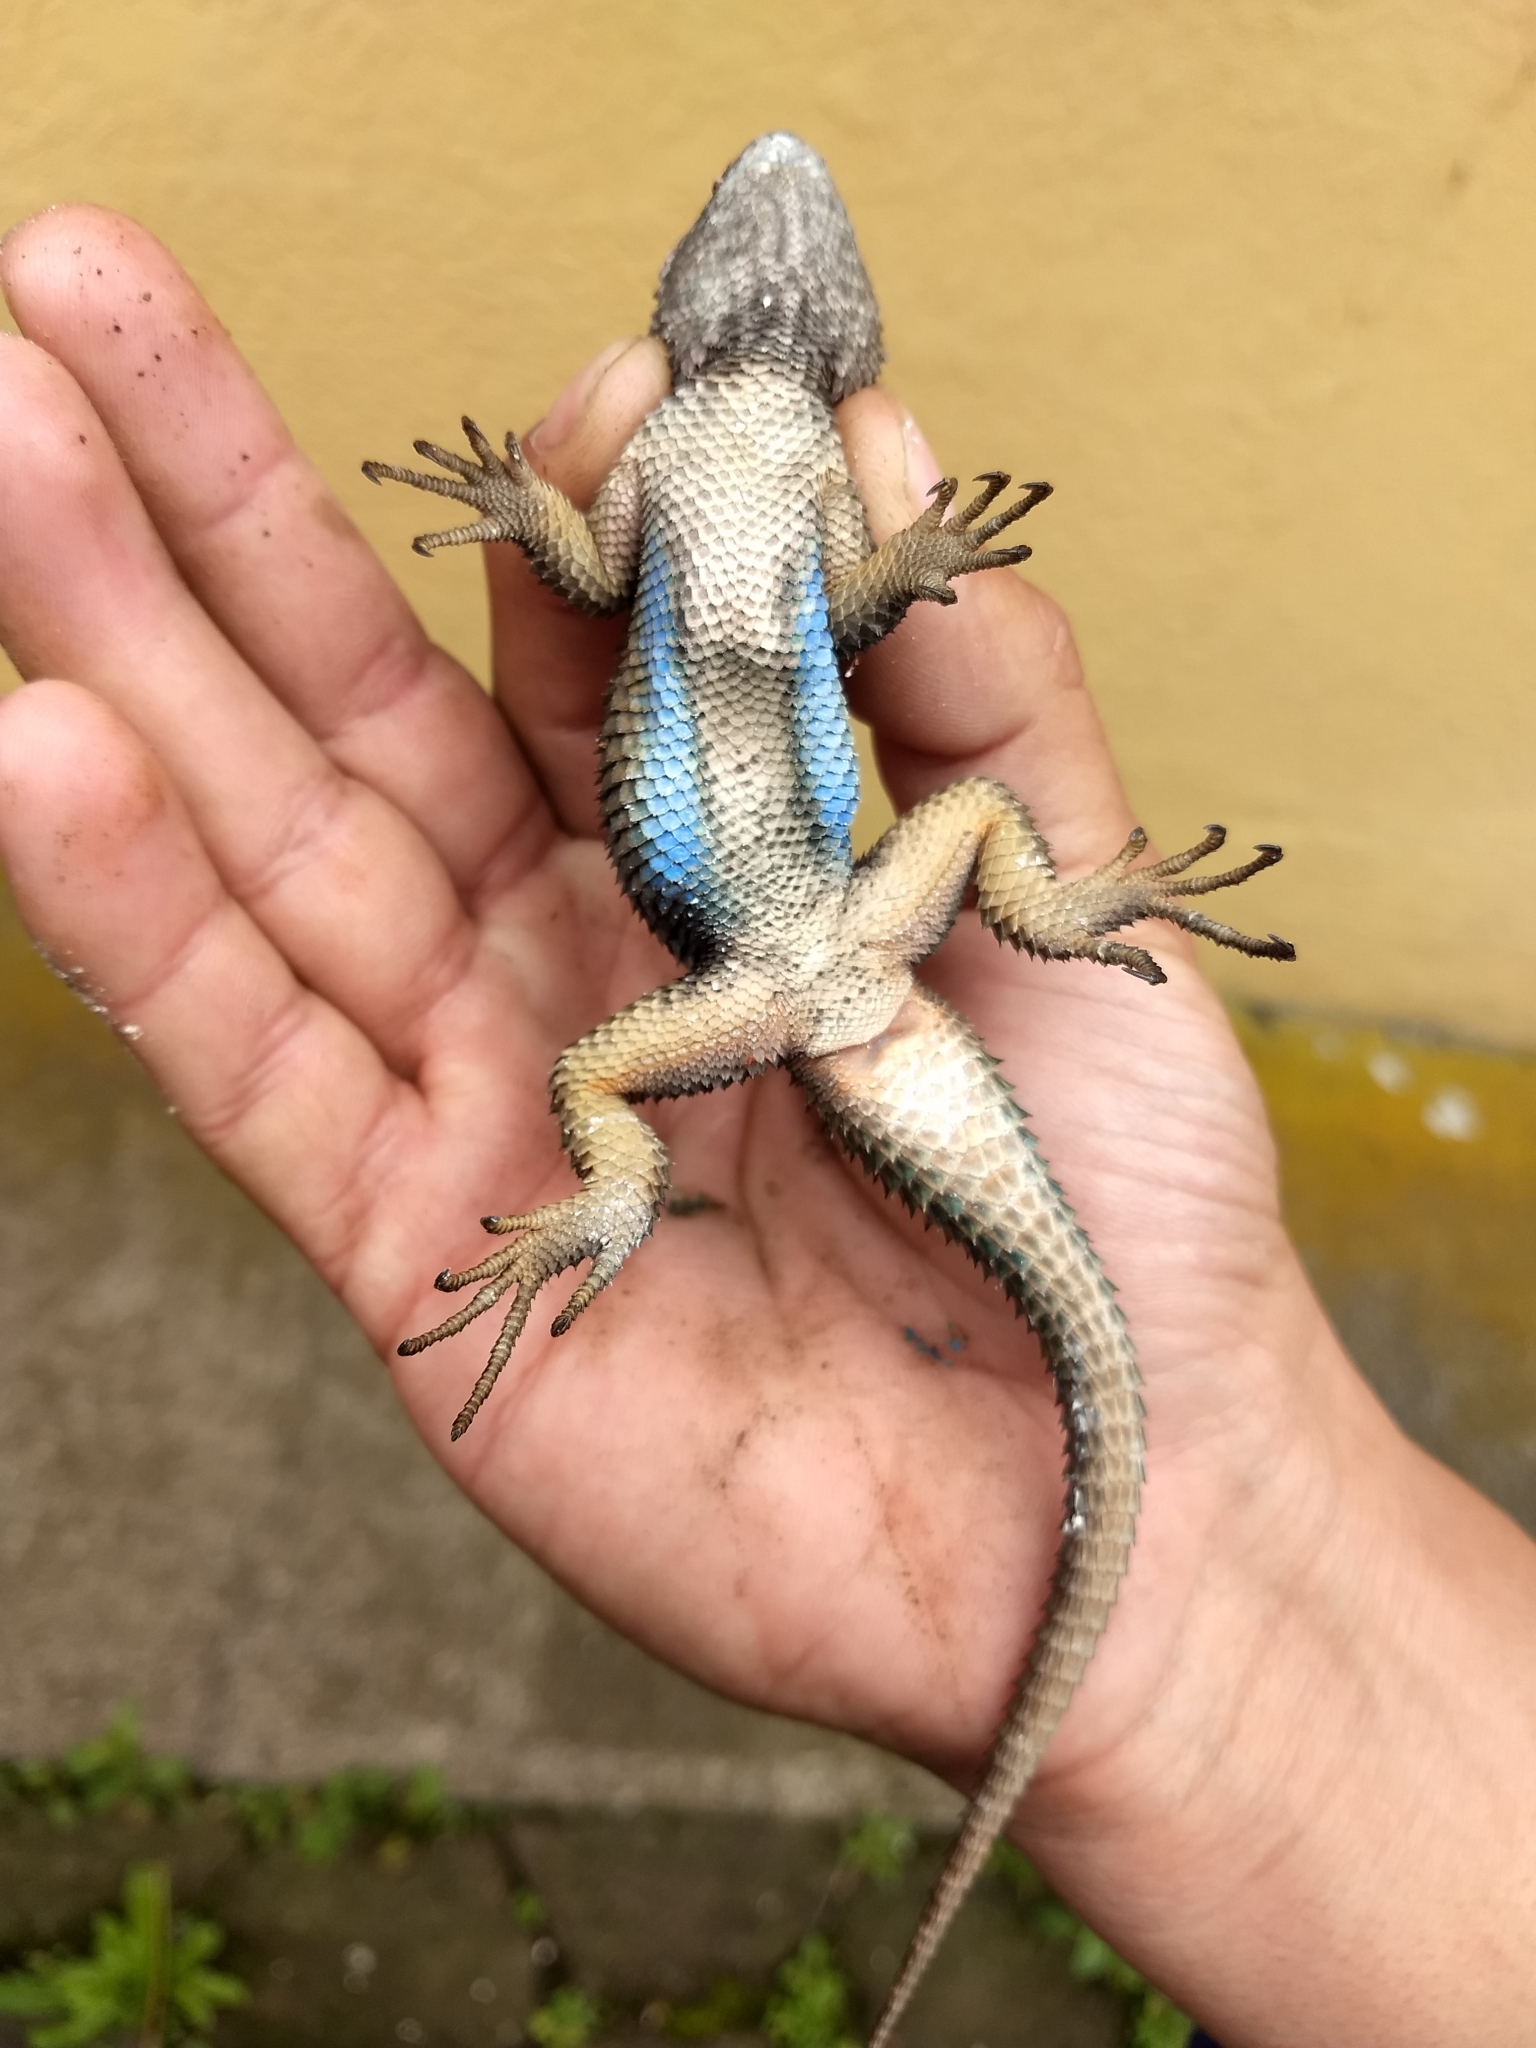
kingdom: Animalia
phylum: Chordata
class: Squamata
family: Phrynosomatidae
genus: Sceloporus
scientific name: Sceloporus mucronatus
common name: Central cleft lizard
